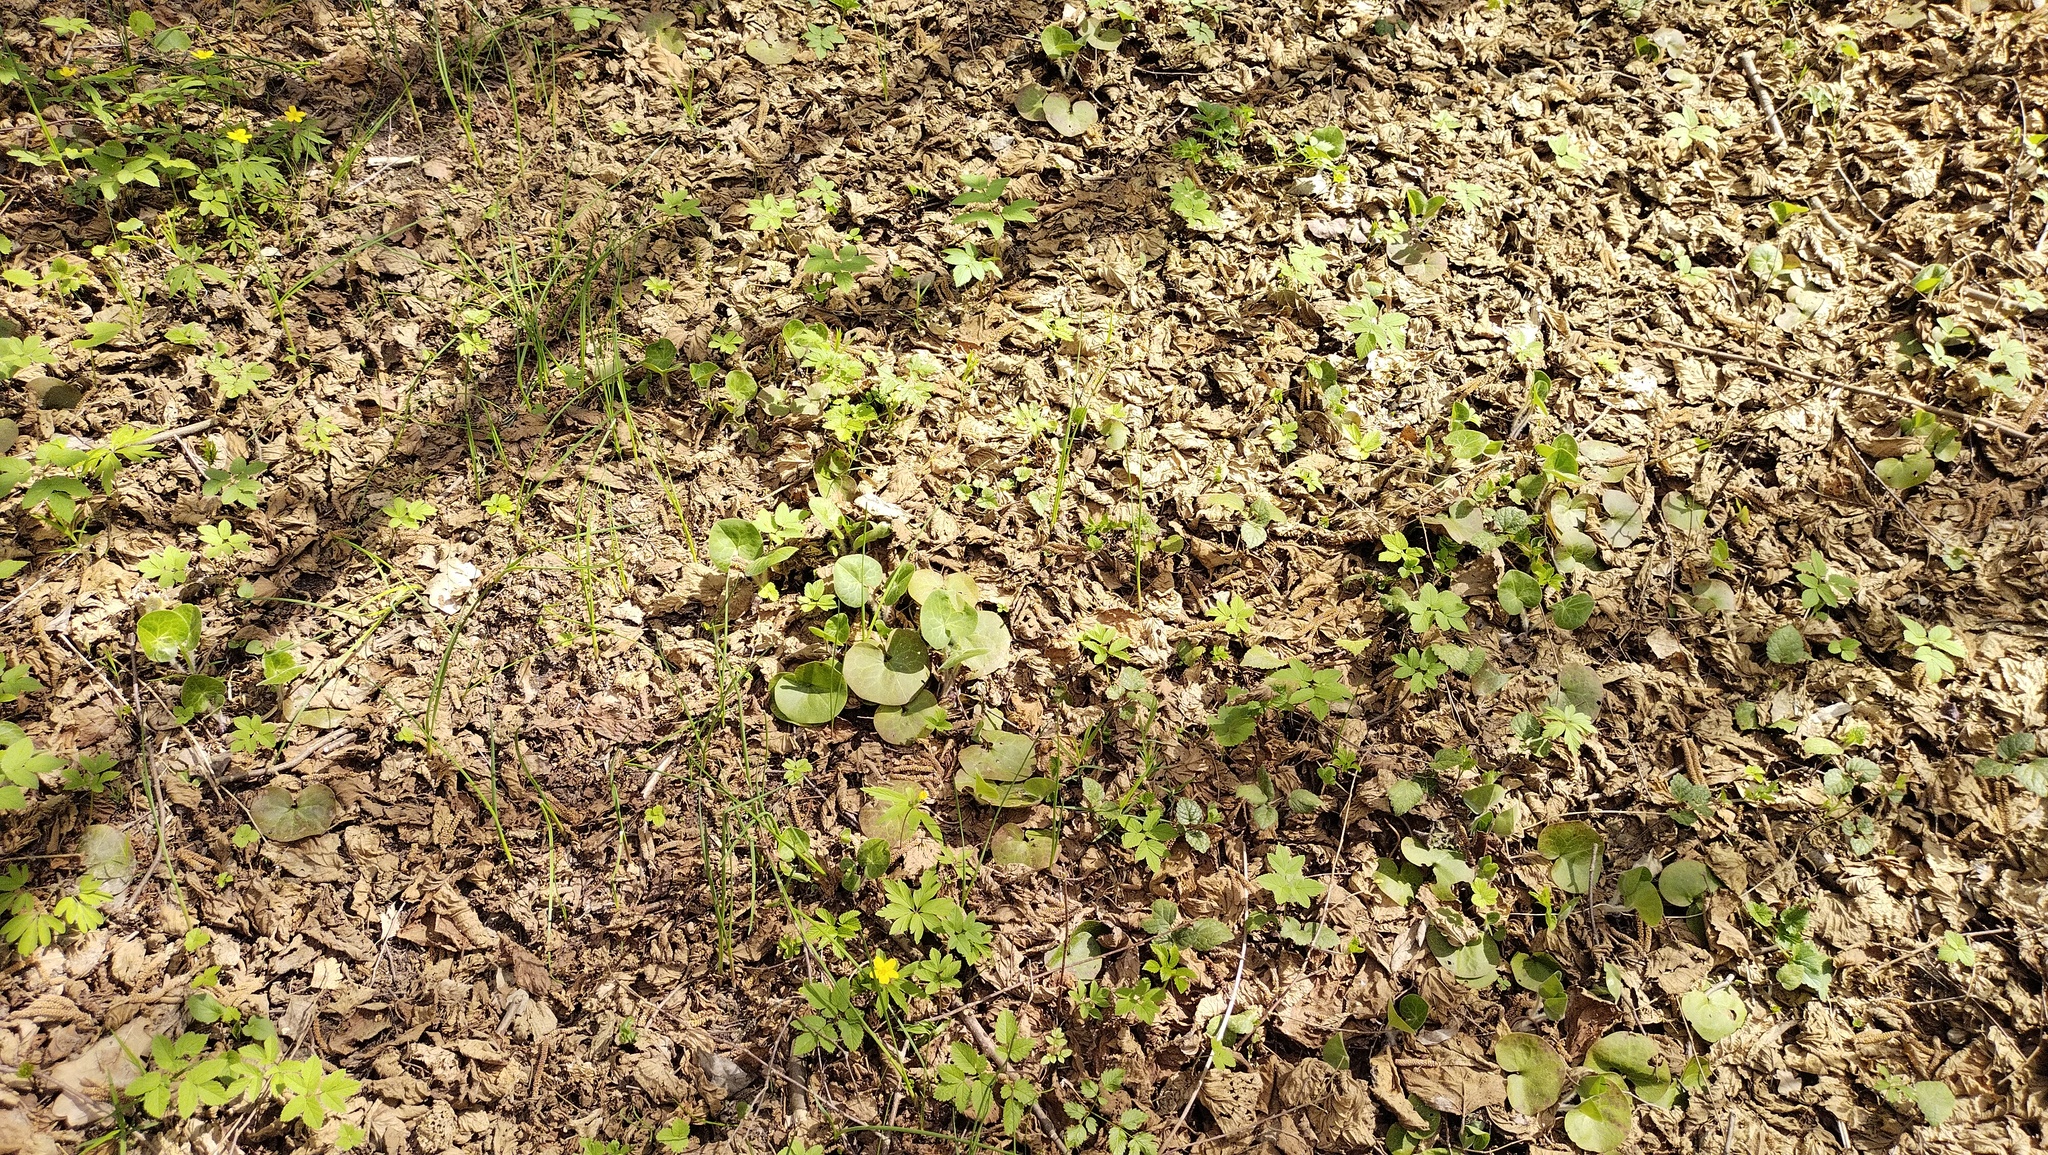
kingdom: Plantae
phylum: Tracheophyta
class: Magnoliopsida
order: Piperales
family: Aristolochiaceae
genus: Asarum
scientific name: Asarum europaeum
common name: Asarabacca
